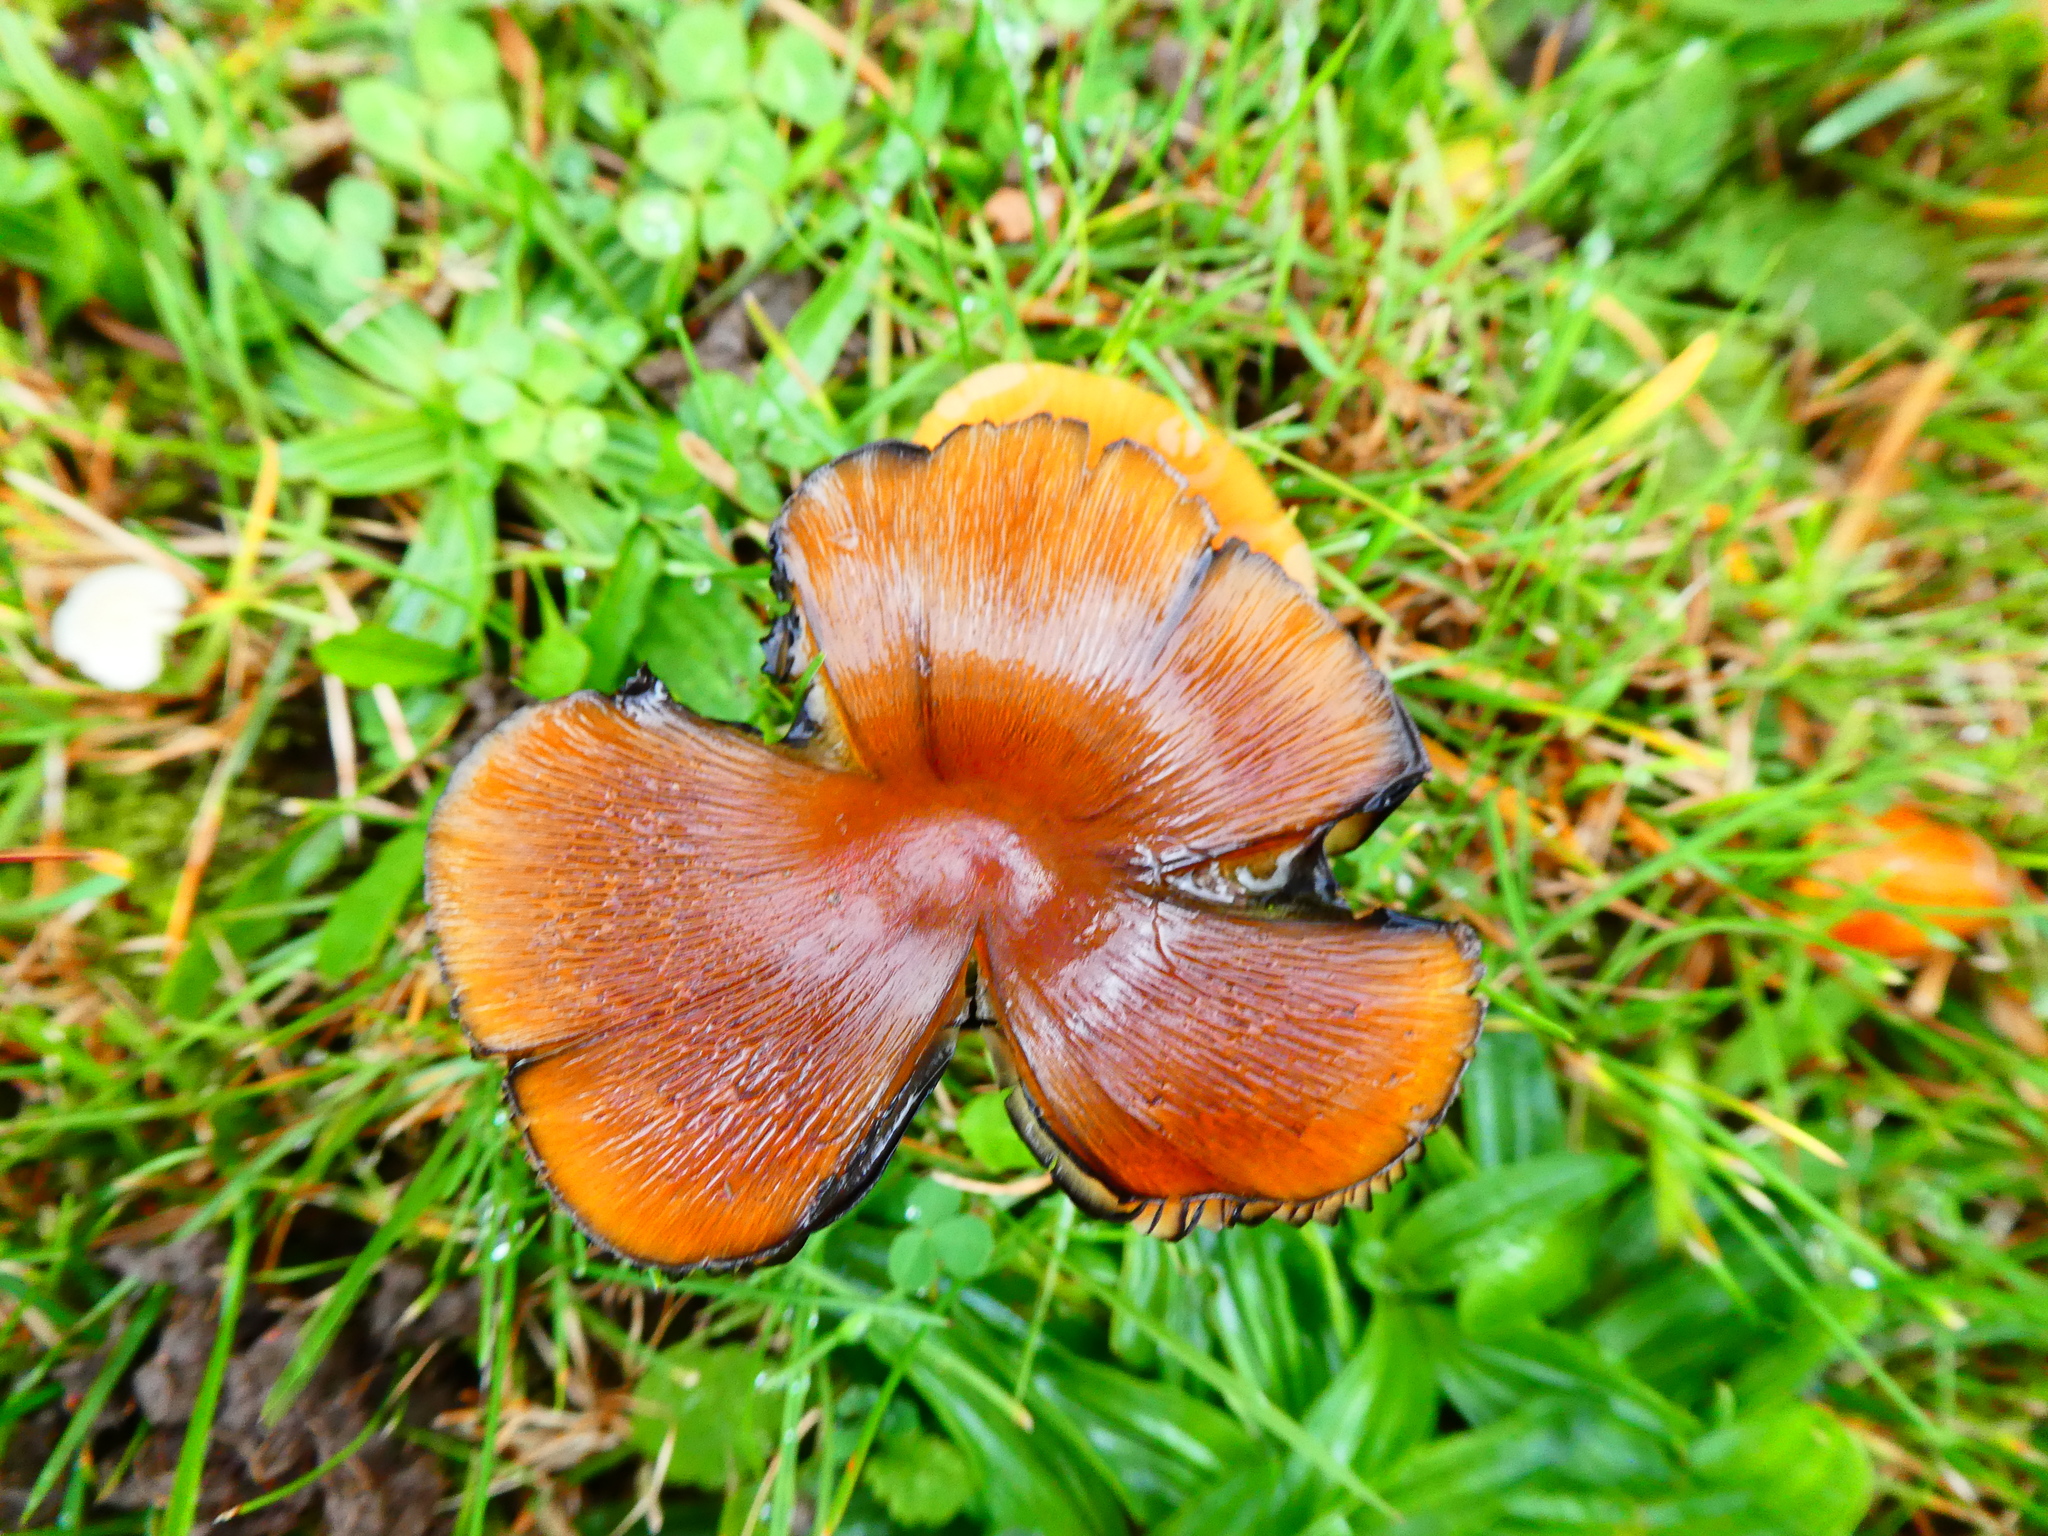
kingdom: Fungi
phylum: Basidiomycota
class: Agaricomycetes
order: Agaricales
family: Hygrophoraceae
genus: Hygrocybe
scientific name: Hygrocybe conica
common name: Blackening wax-cap
